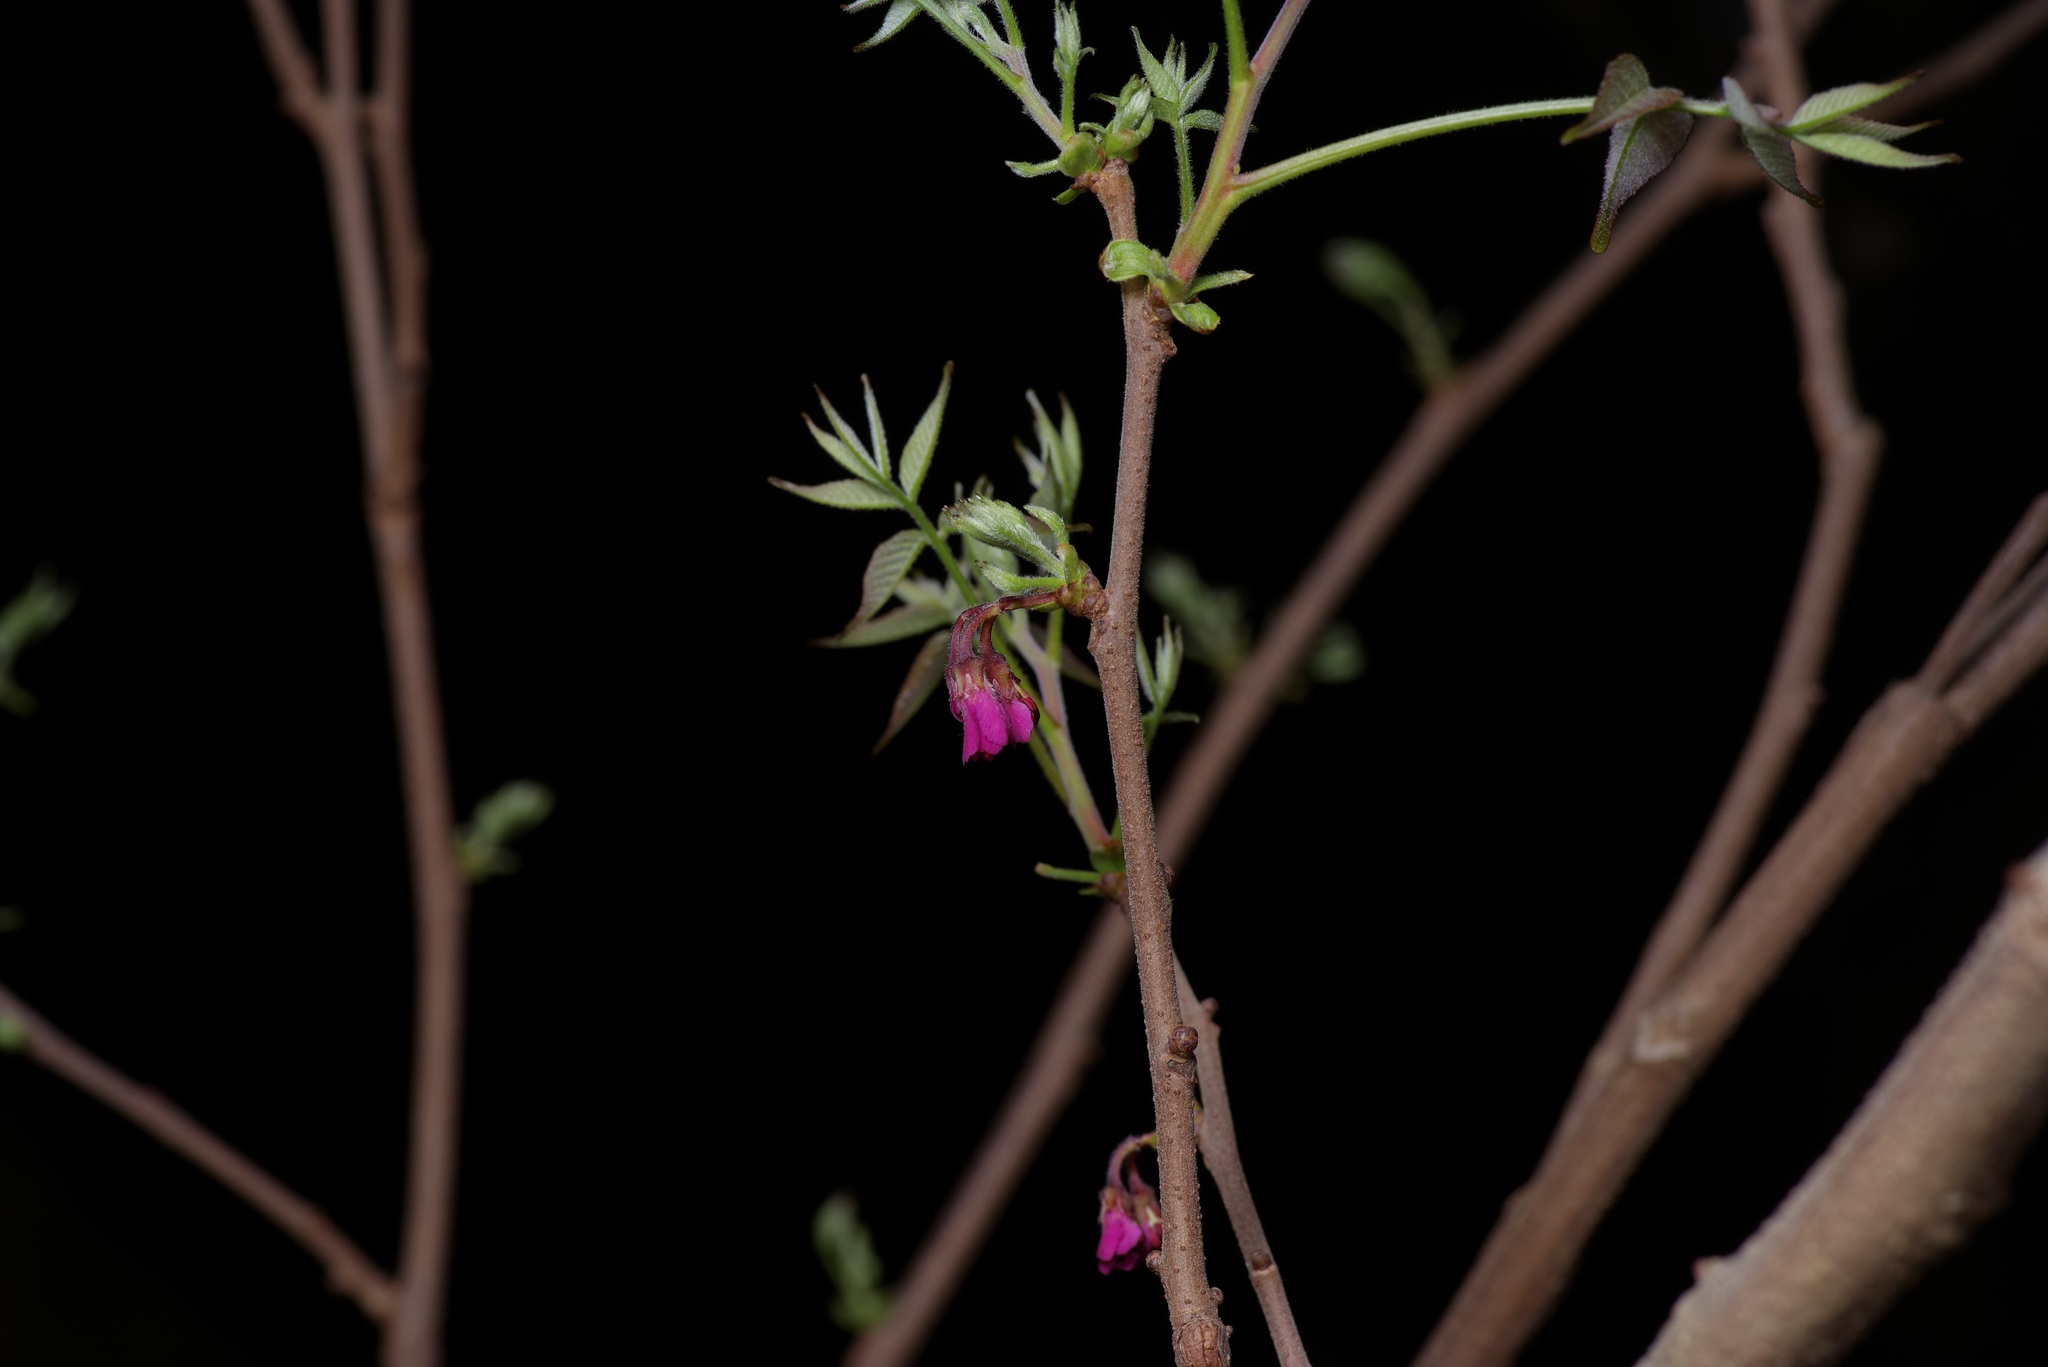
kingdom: Plantae
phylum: Tracheophyta
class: Magnoliopsida
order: Sapindales
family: Sapindaceae
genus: Ungnadia
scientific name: Ungnadia speciosa
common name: Texas-buckeye
